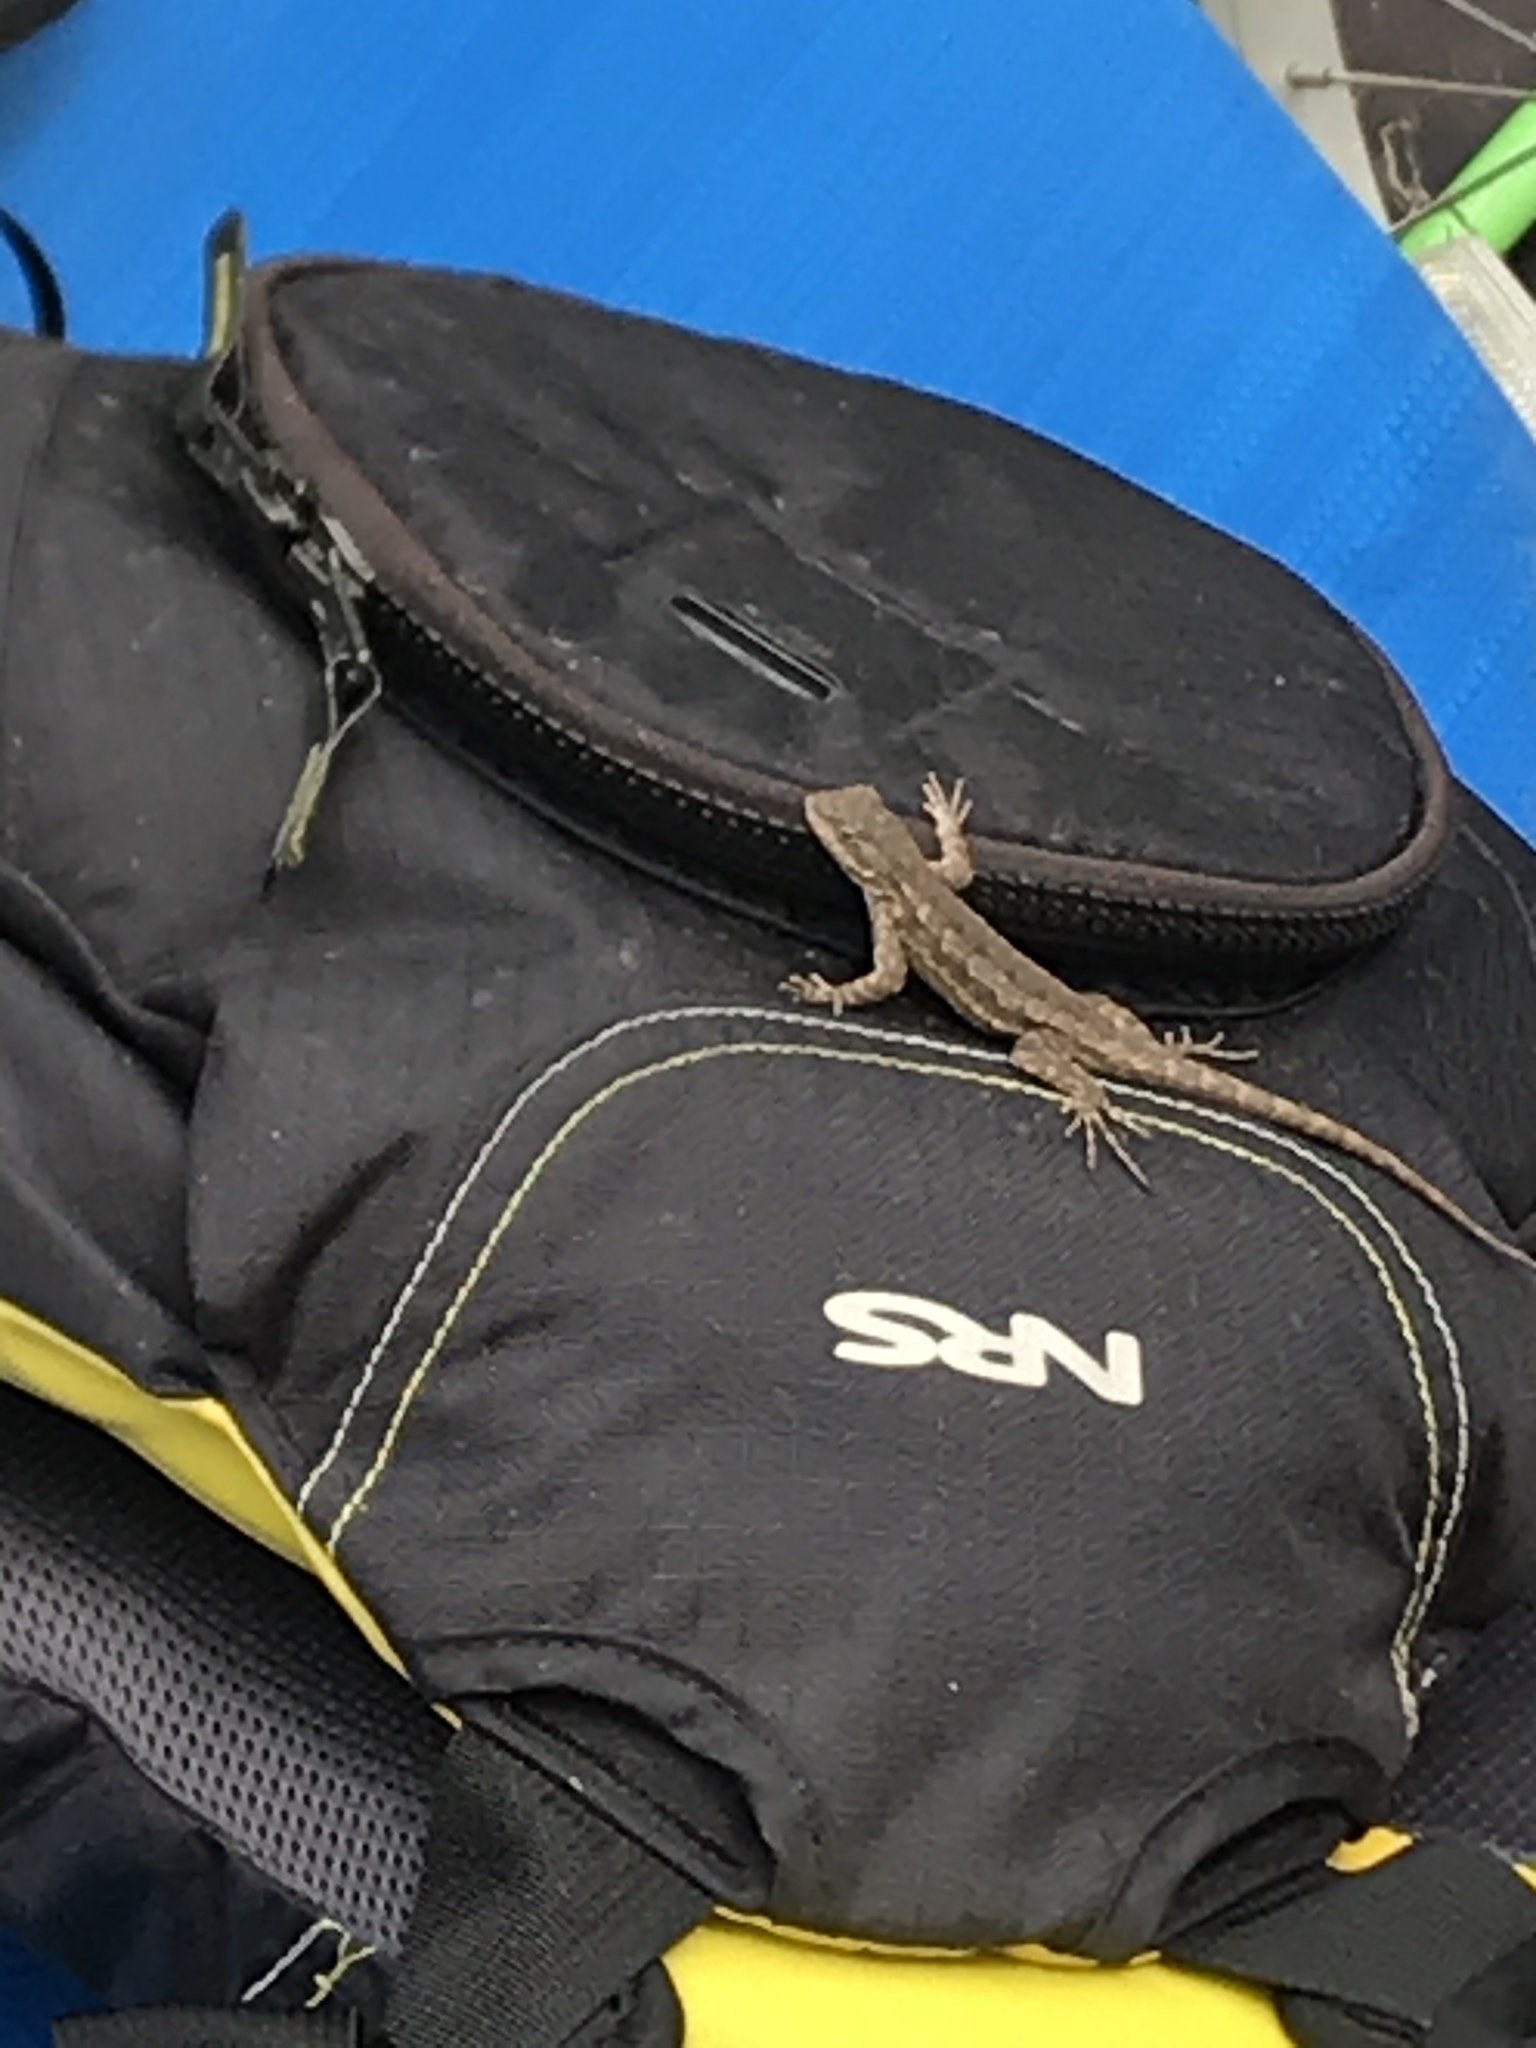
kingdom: Animalia
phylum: Chordata
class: Squamata
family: Phrynosomatidae
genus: Sceloporus
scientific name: Sceloporus occidentalis
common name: Western fence lizard
